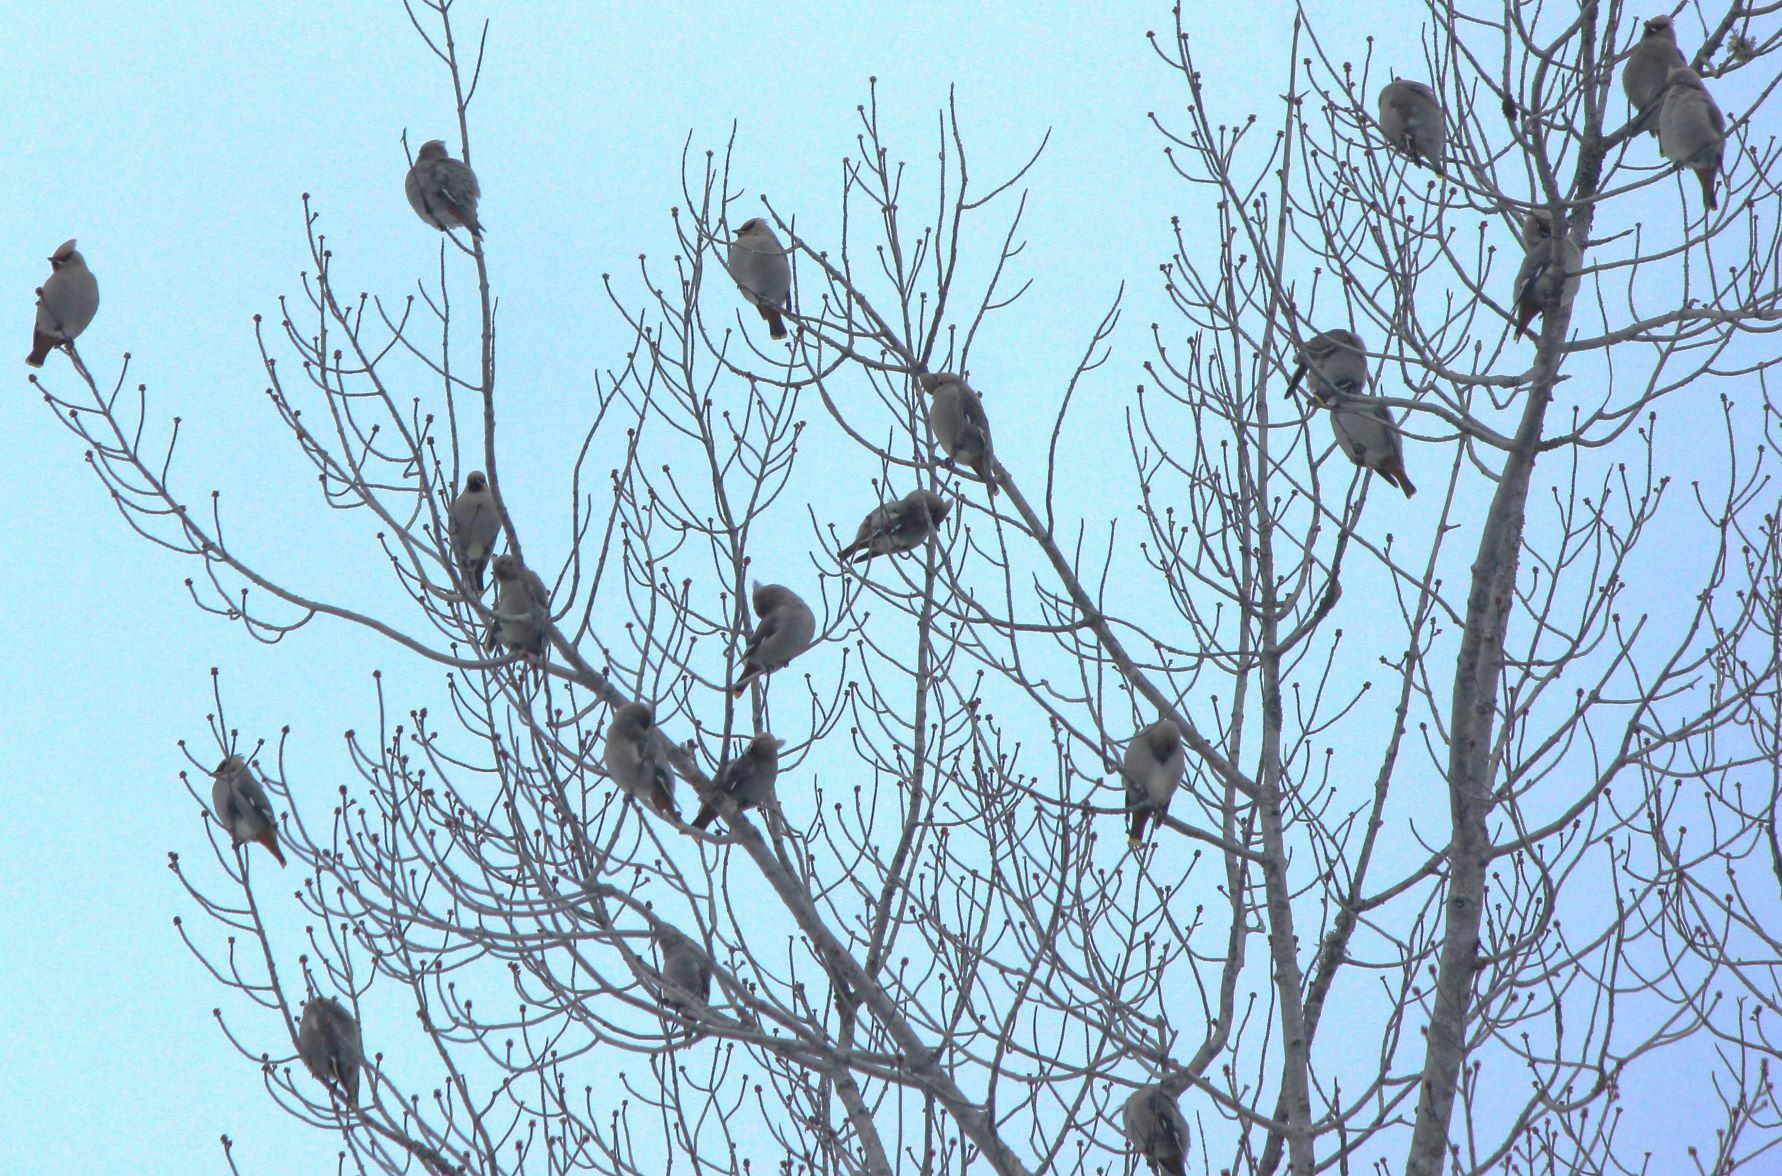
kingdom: Animalia
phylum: Chordata
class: Aves
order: Passeriformes
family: Bombycillidae
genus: Bombycilla
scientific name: Bombycilla garrulus
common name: Bohemian waxwing
